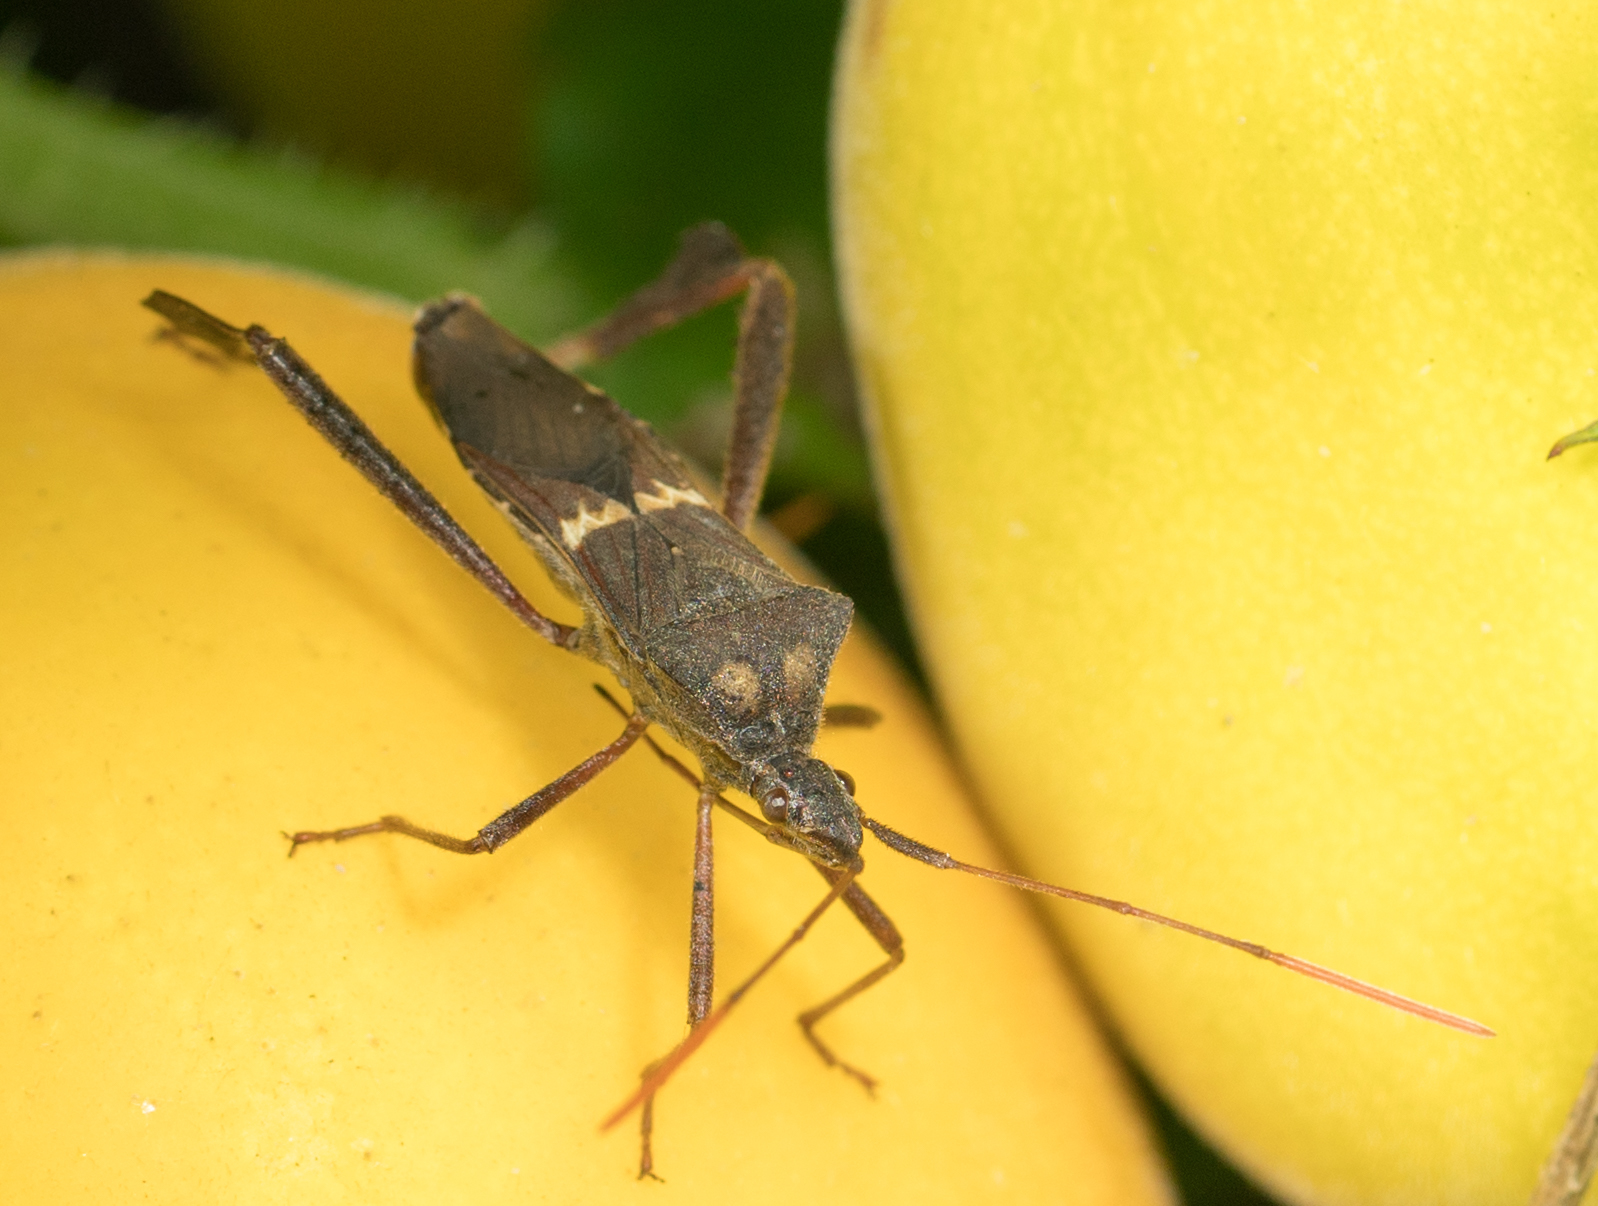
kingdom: Animalia
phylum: Arthropoda
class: Insecta
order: Hemiptera
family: Coreidae
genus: Leptoglossus
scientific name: Leptoglossus zonatus
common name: Large-legged bug
